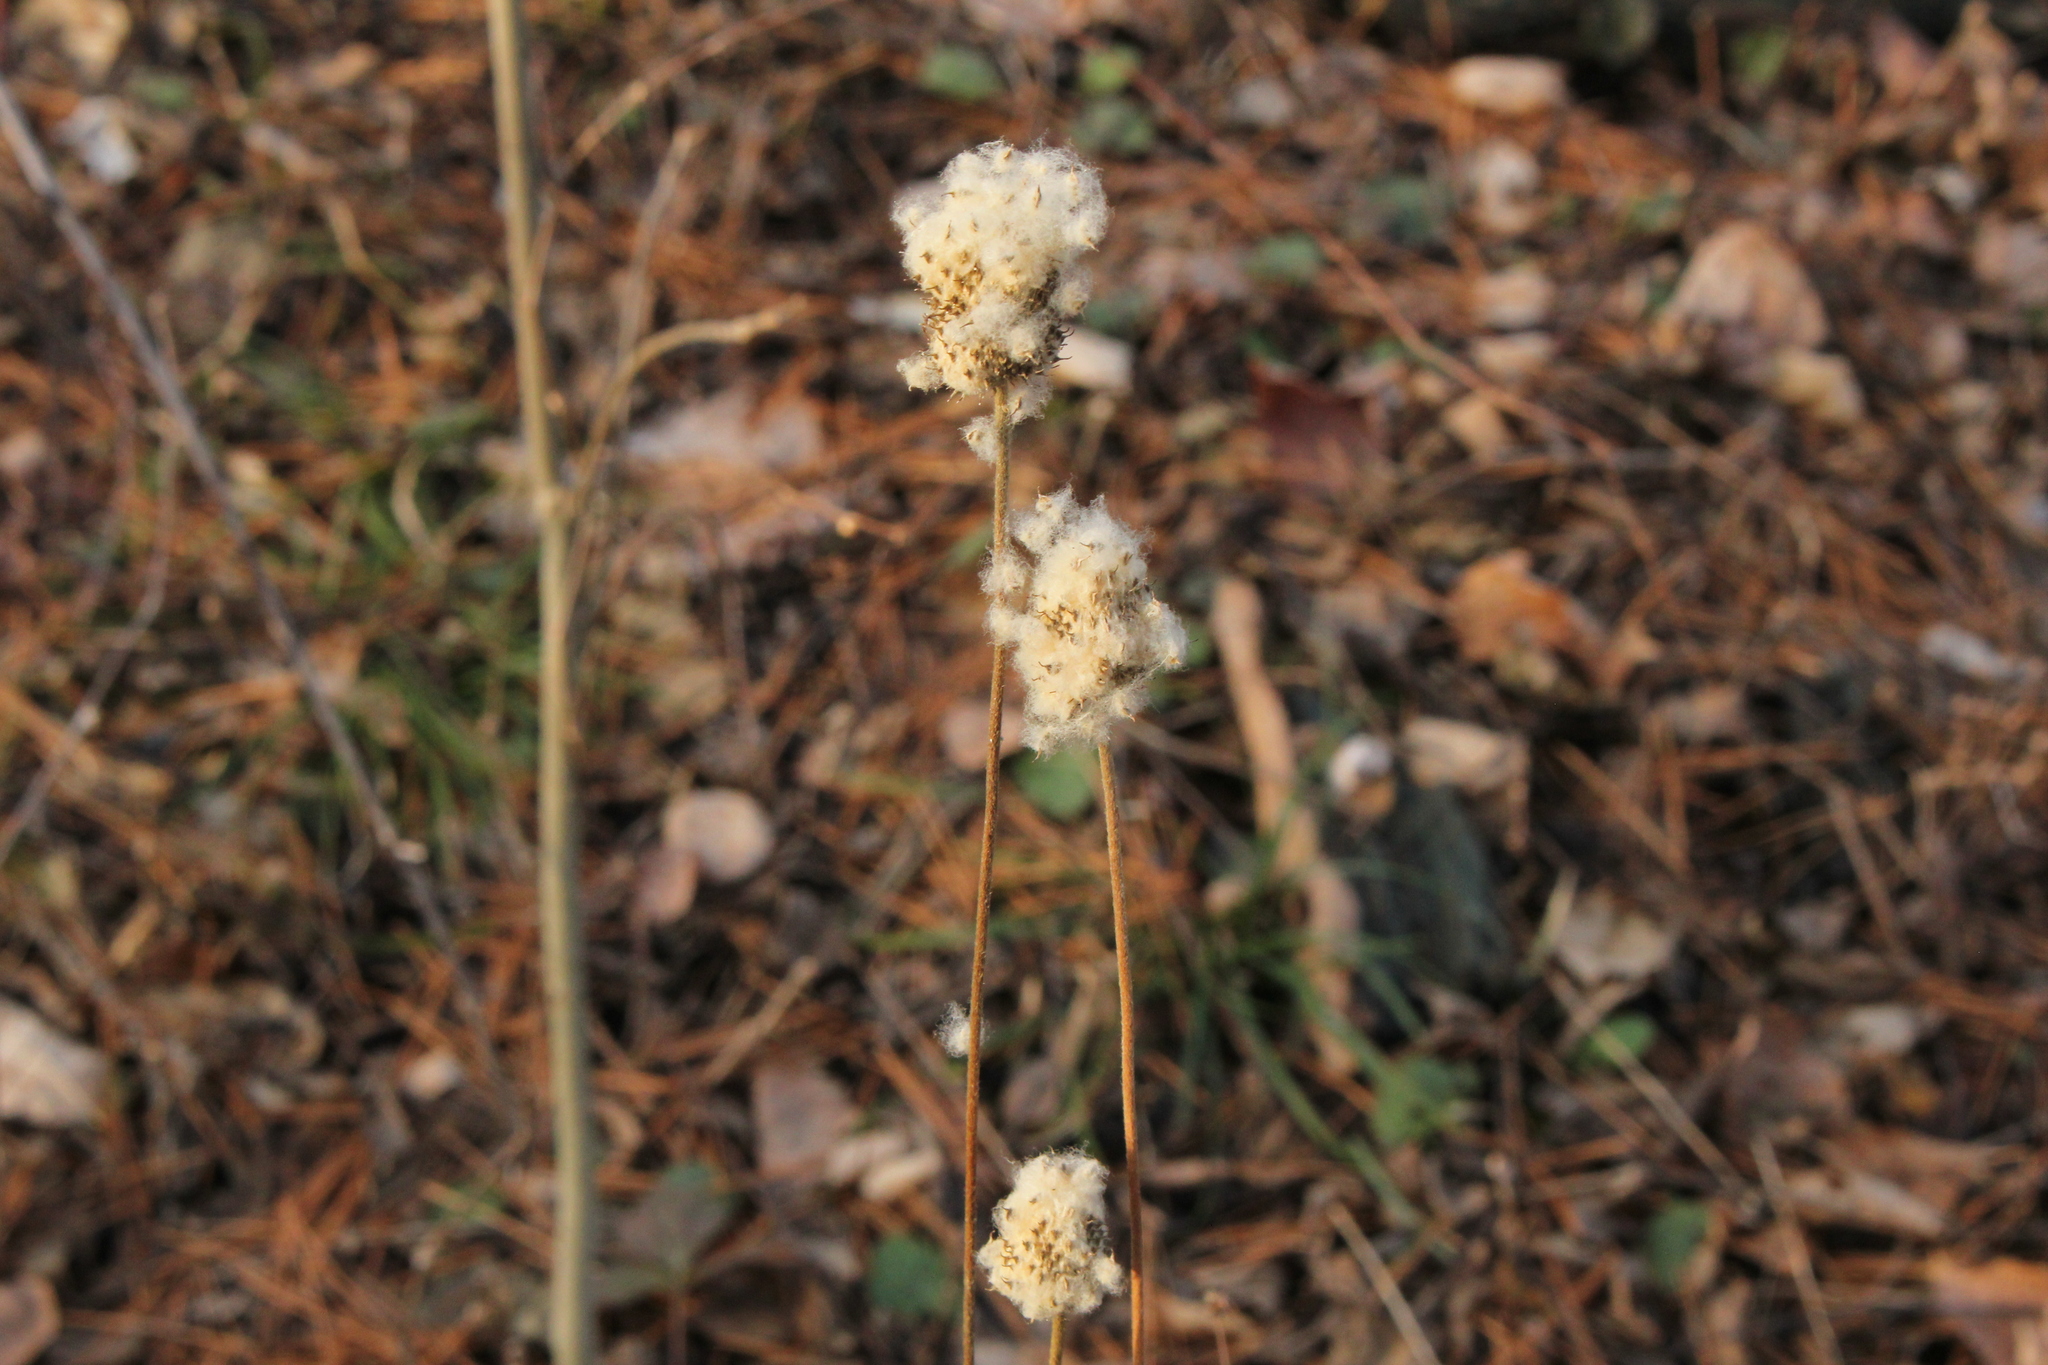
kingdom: Plantae
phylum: Tracheophyta
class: Magnoliopsida
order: Ranunculales
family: Ranunculaceae
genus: Anemone
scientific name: Anemone virginiana
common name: Tall anemone
